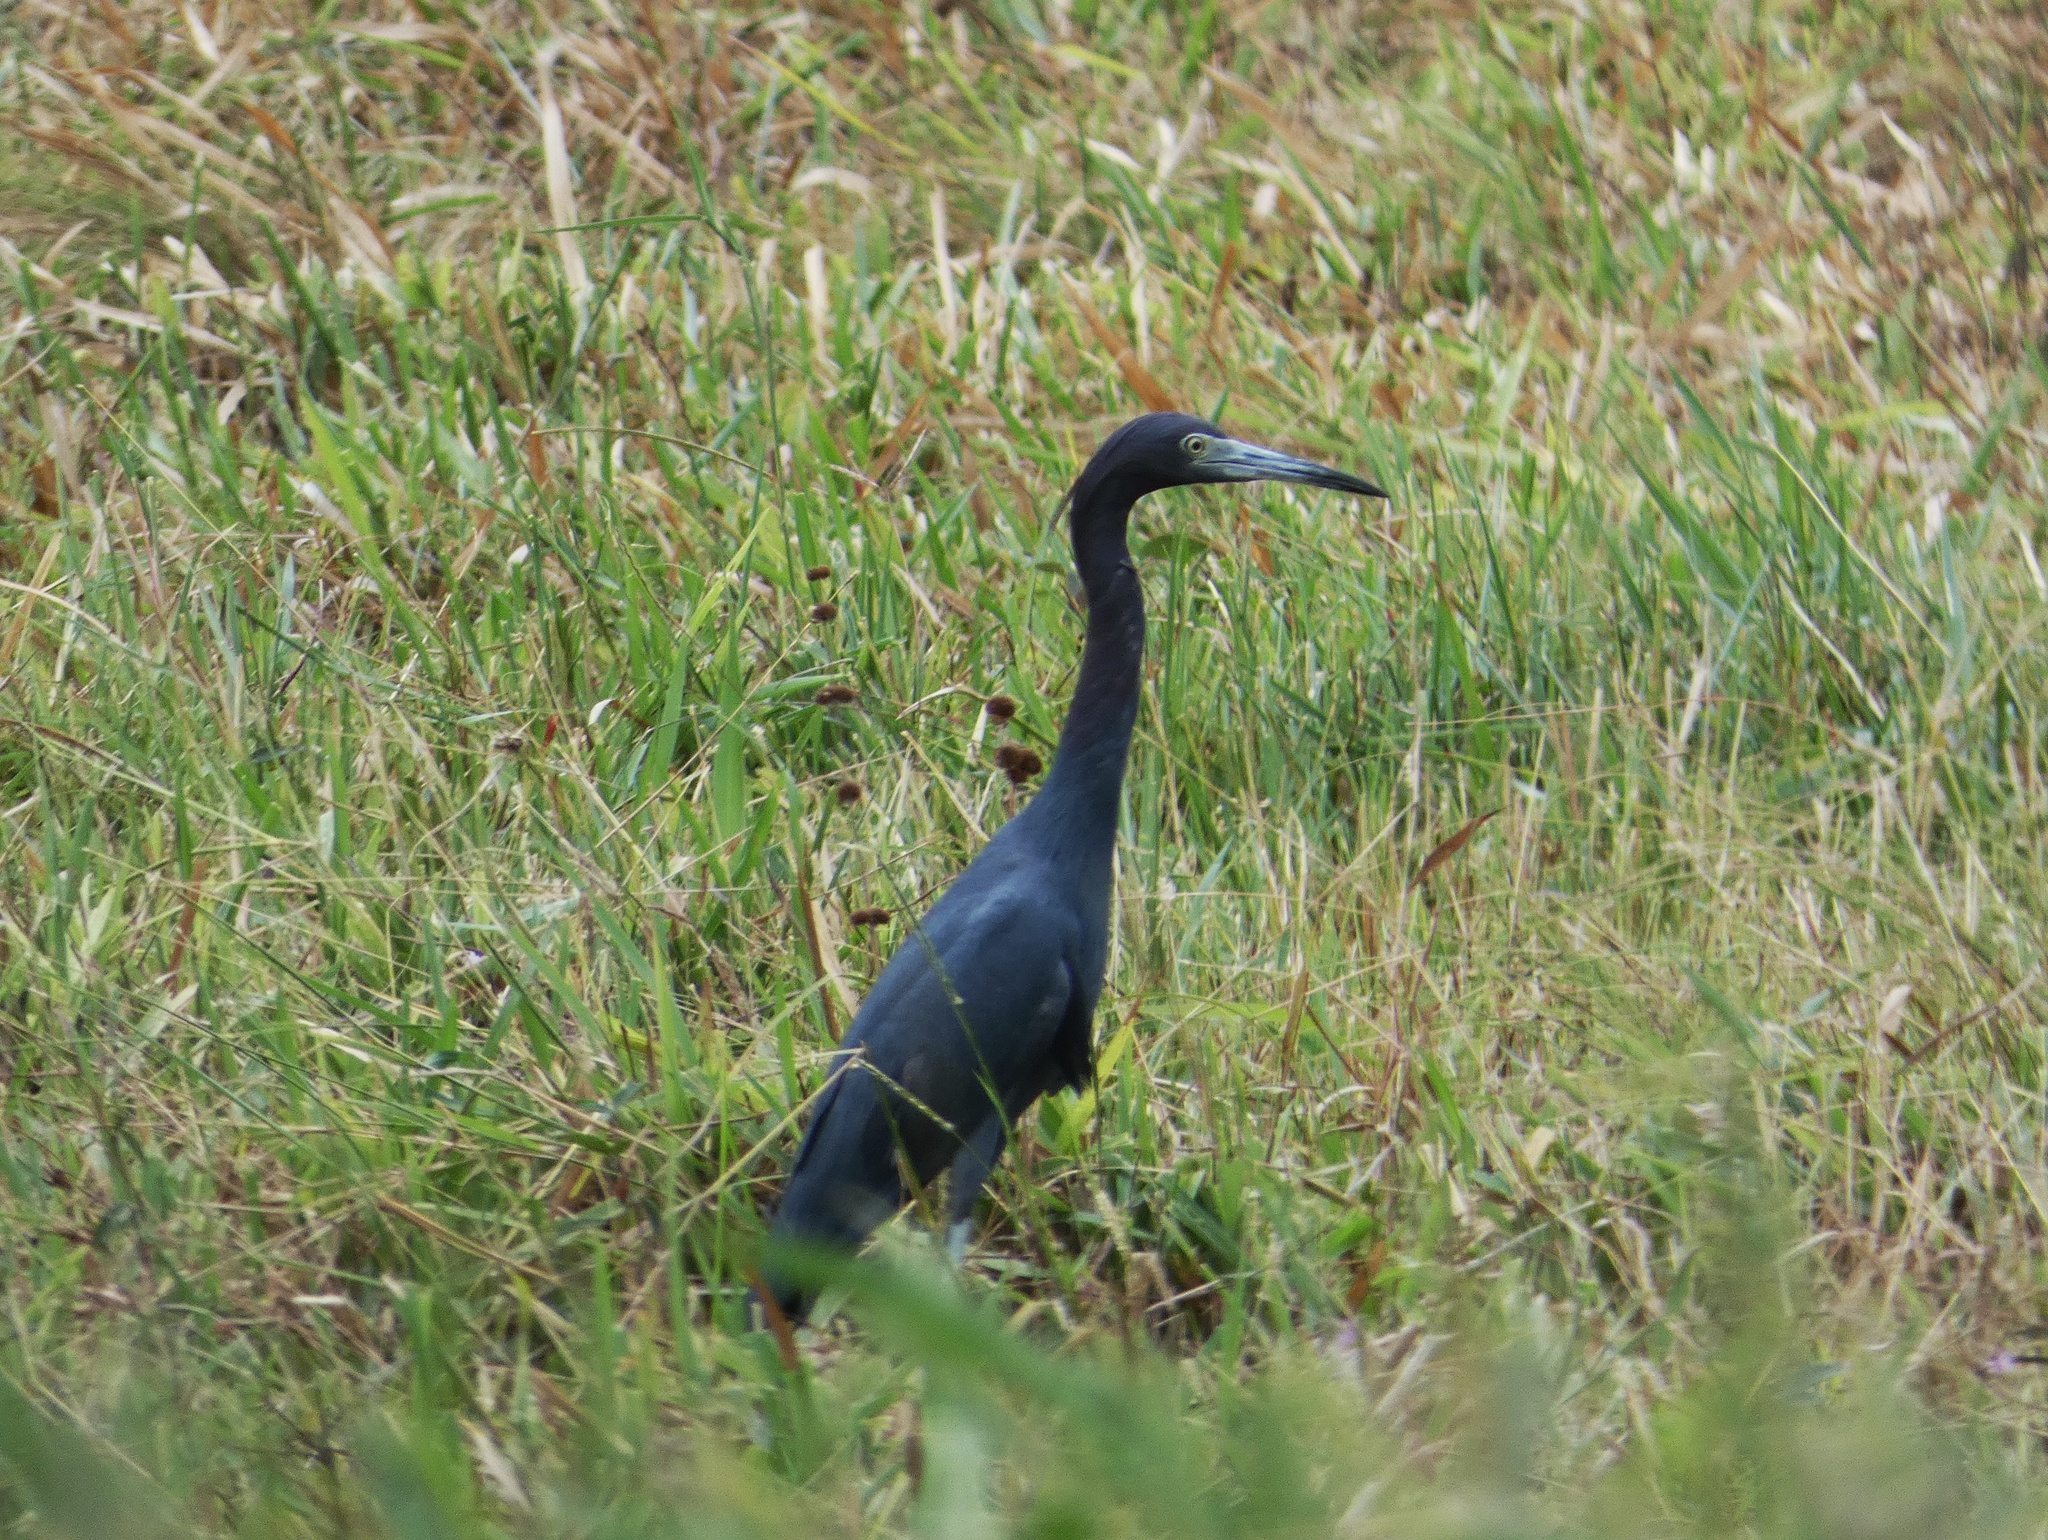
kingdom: Animalia
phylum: Chordata
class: Aves
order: Pelecaniformes
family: Ardeidae
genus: Egretta
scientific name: Egretta caerulea
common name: Little blue heron
